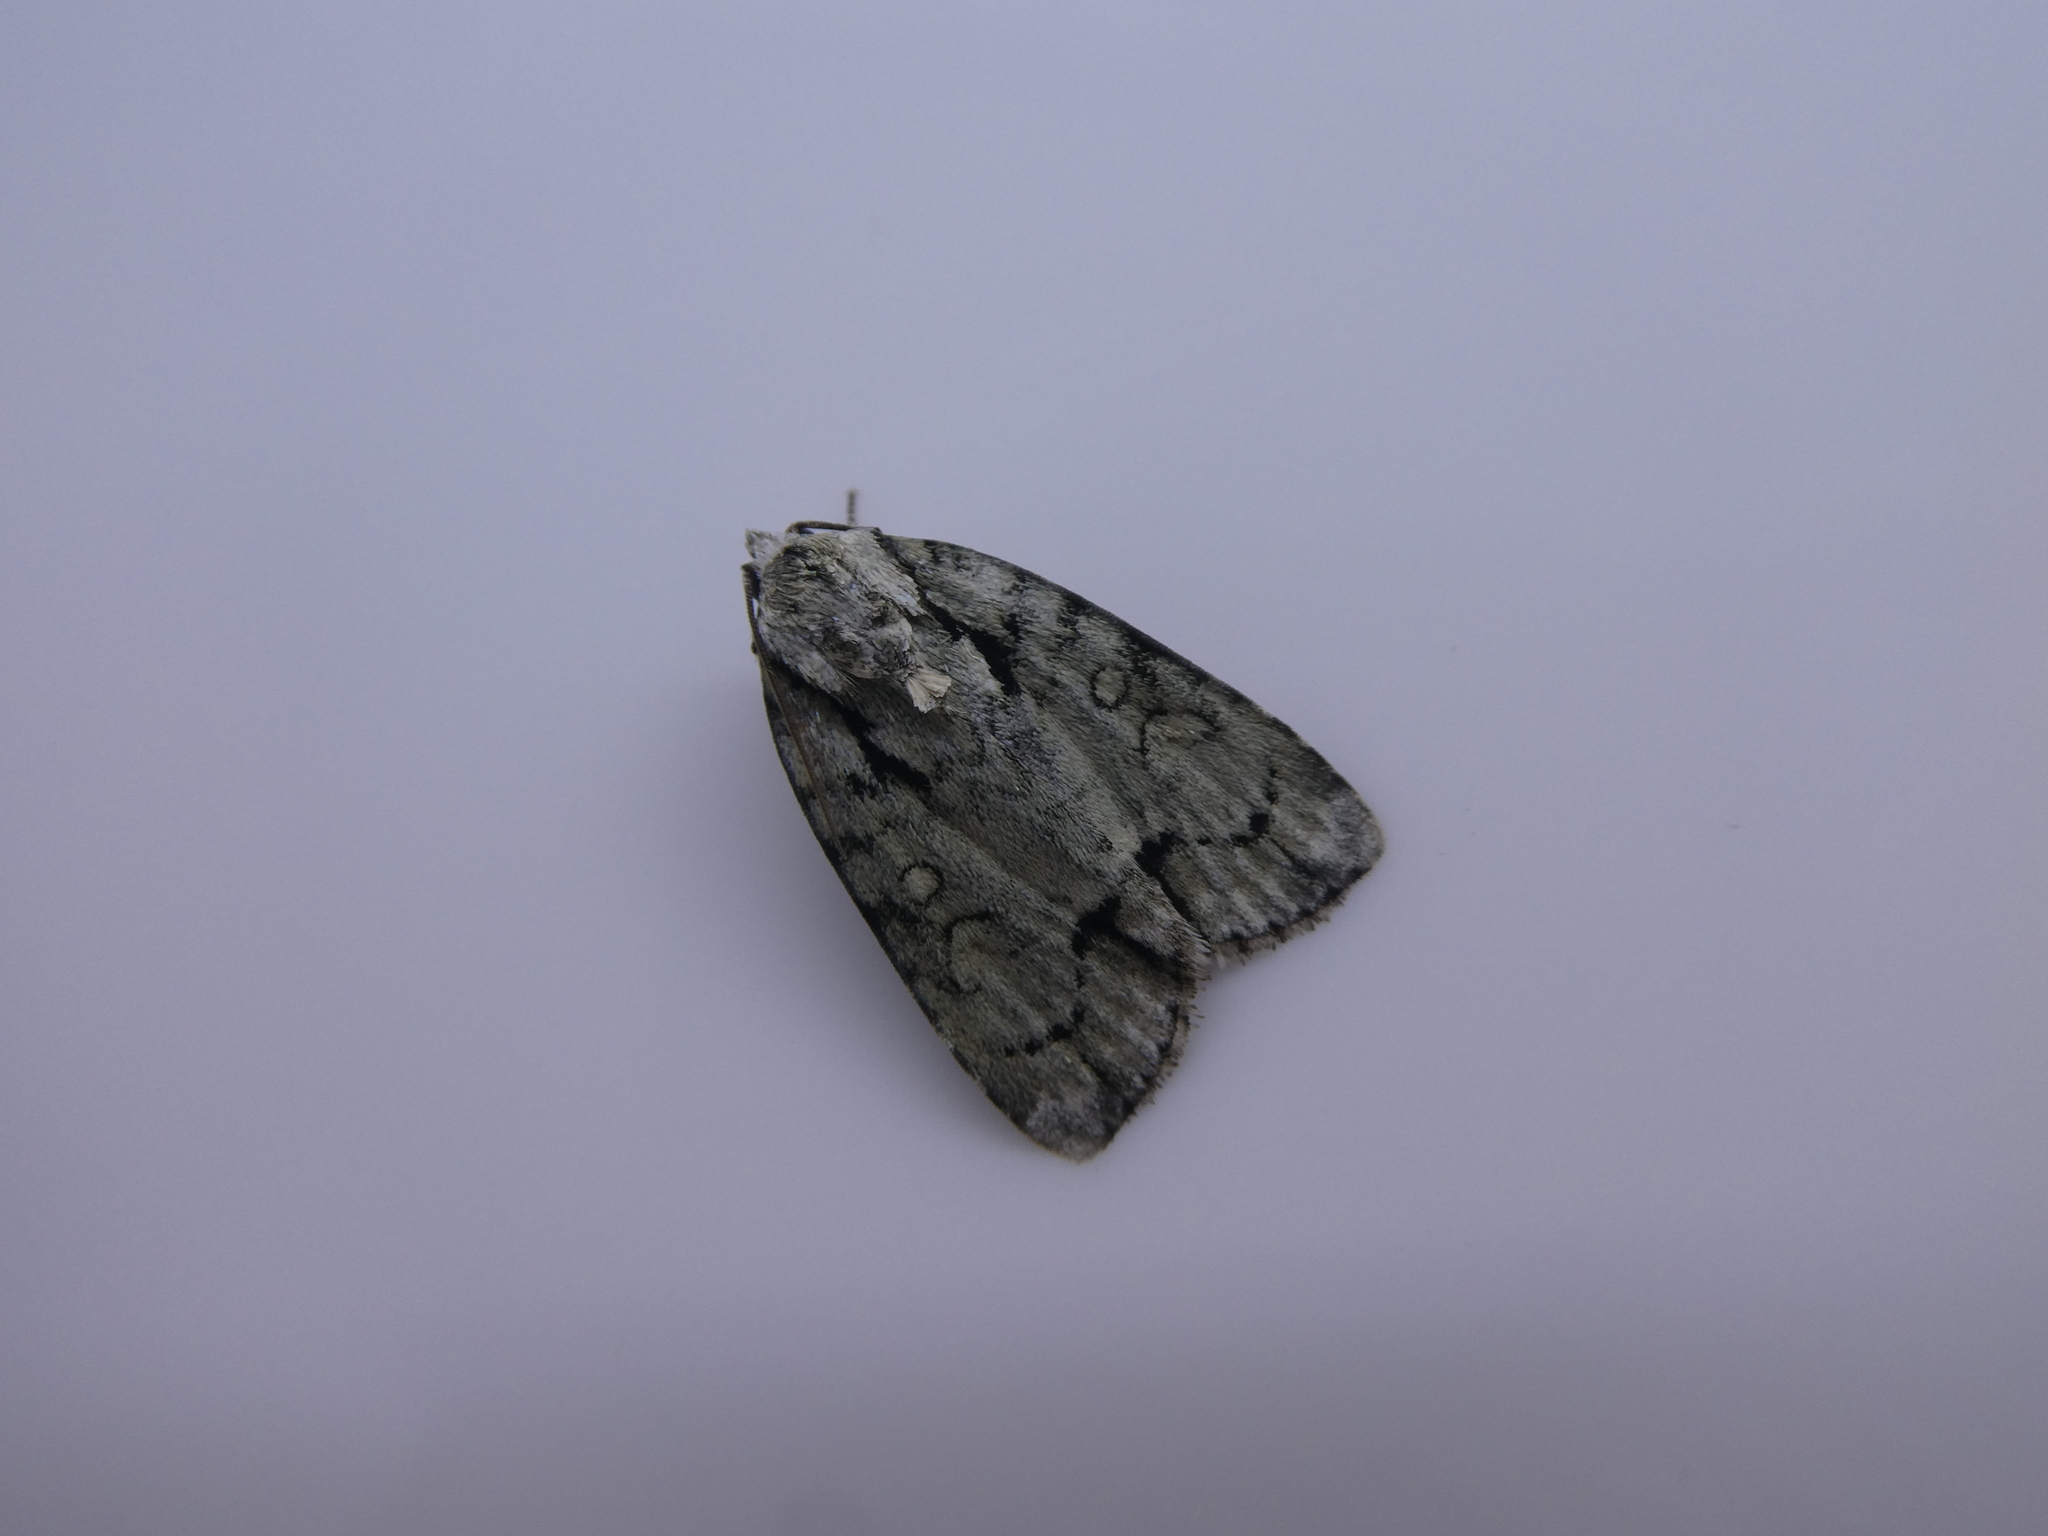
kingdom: Animalia
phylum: Arthropoda
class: Insecta
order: Lepidoptera
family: Noctuidae
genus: Acronicta
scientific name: Acronicta vinnula
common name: Delightful dagger
